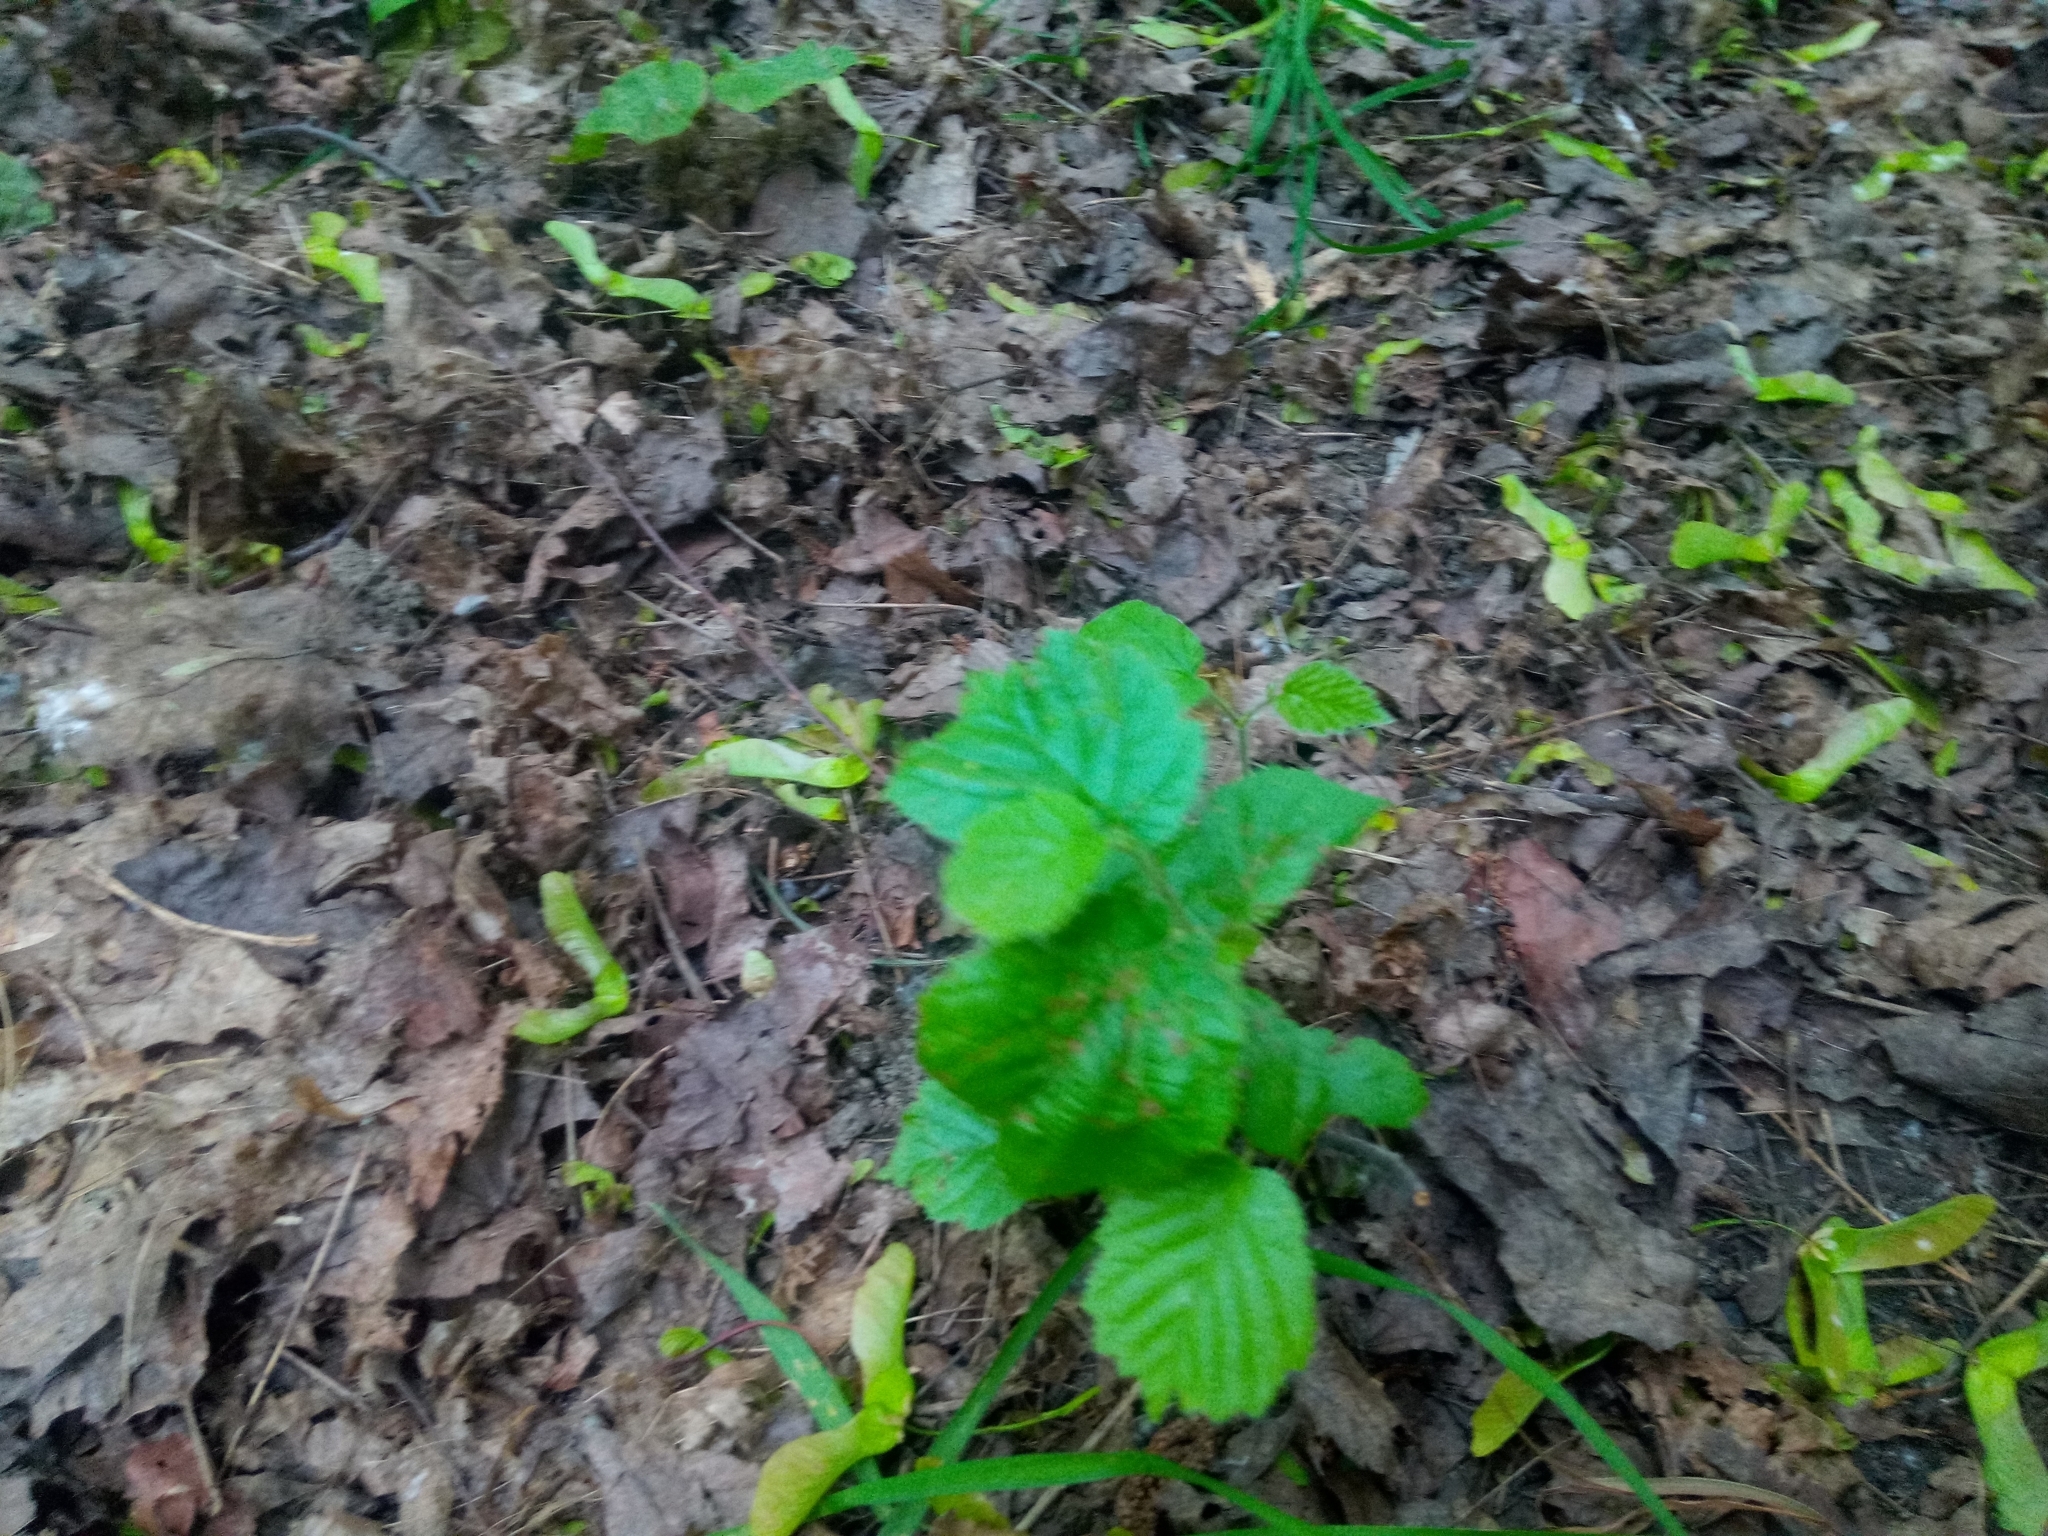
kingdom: Plantae
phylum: Tracheophyta
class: Magnoliopsida
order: Fagales
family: Betulaceae
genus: Corylus
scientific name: Corylus avellana
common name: European hazel
